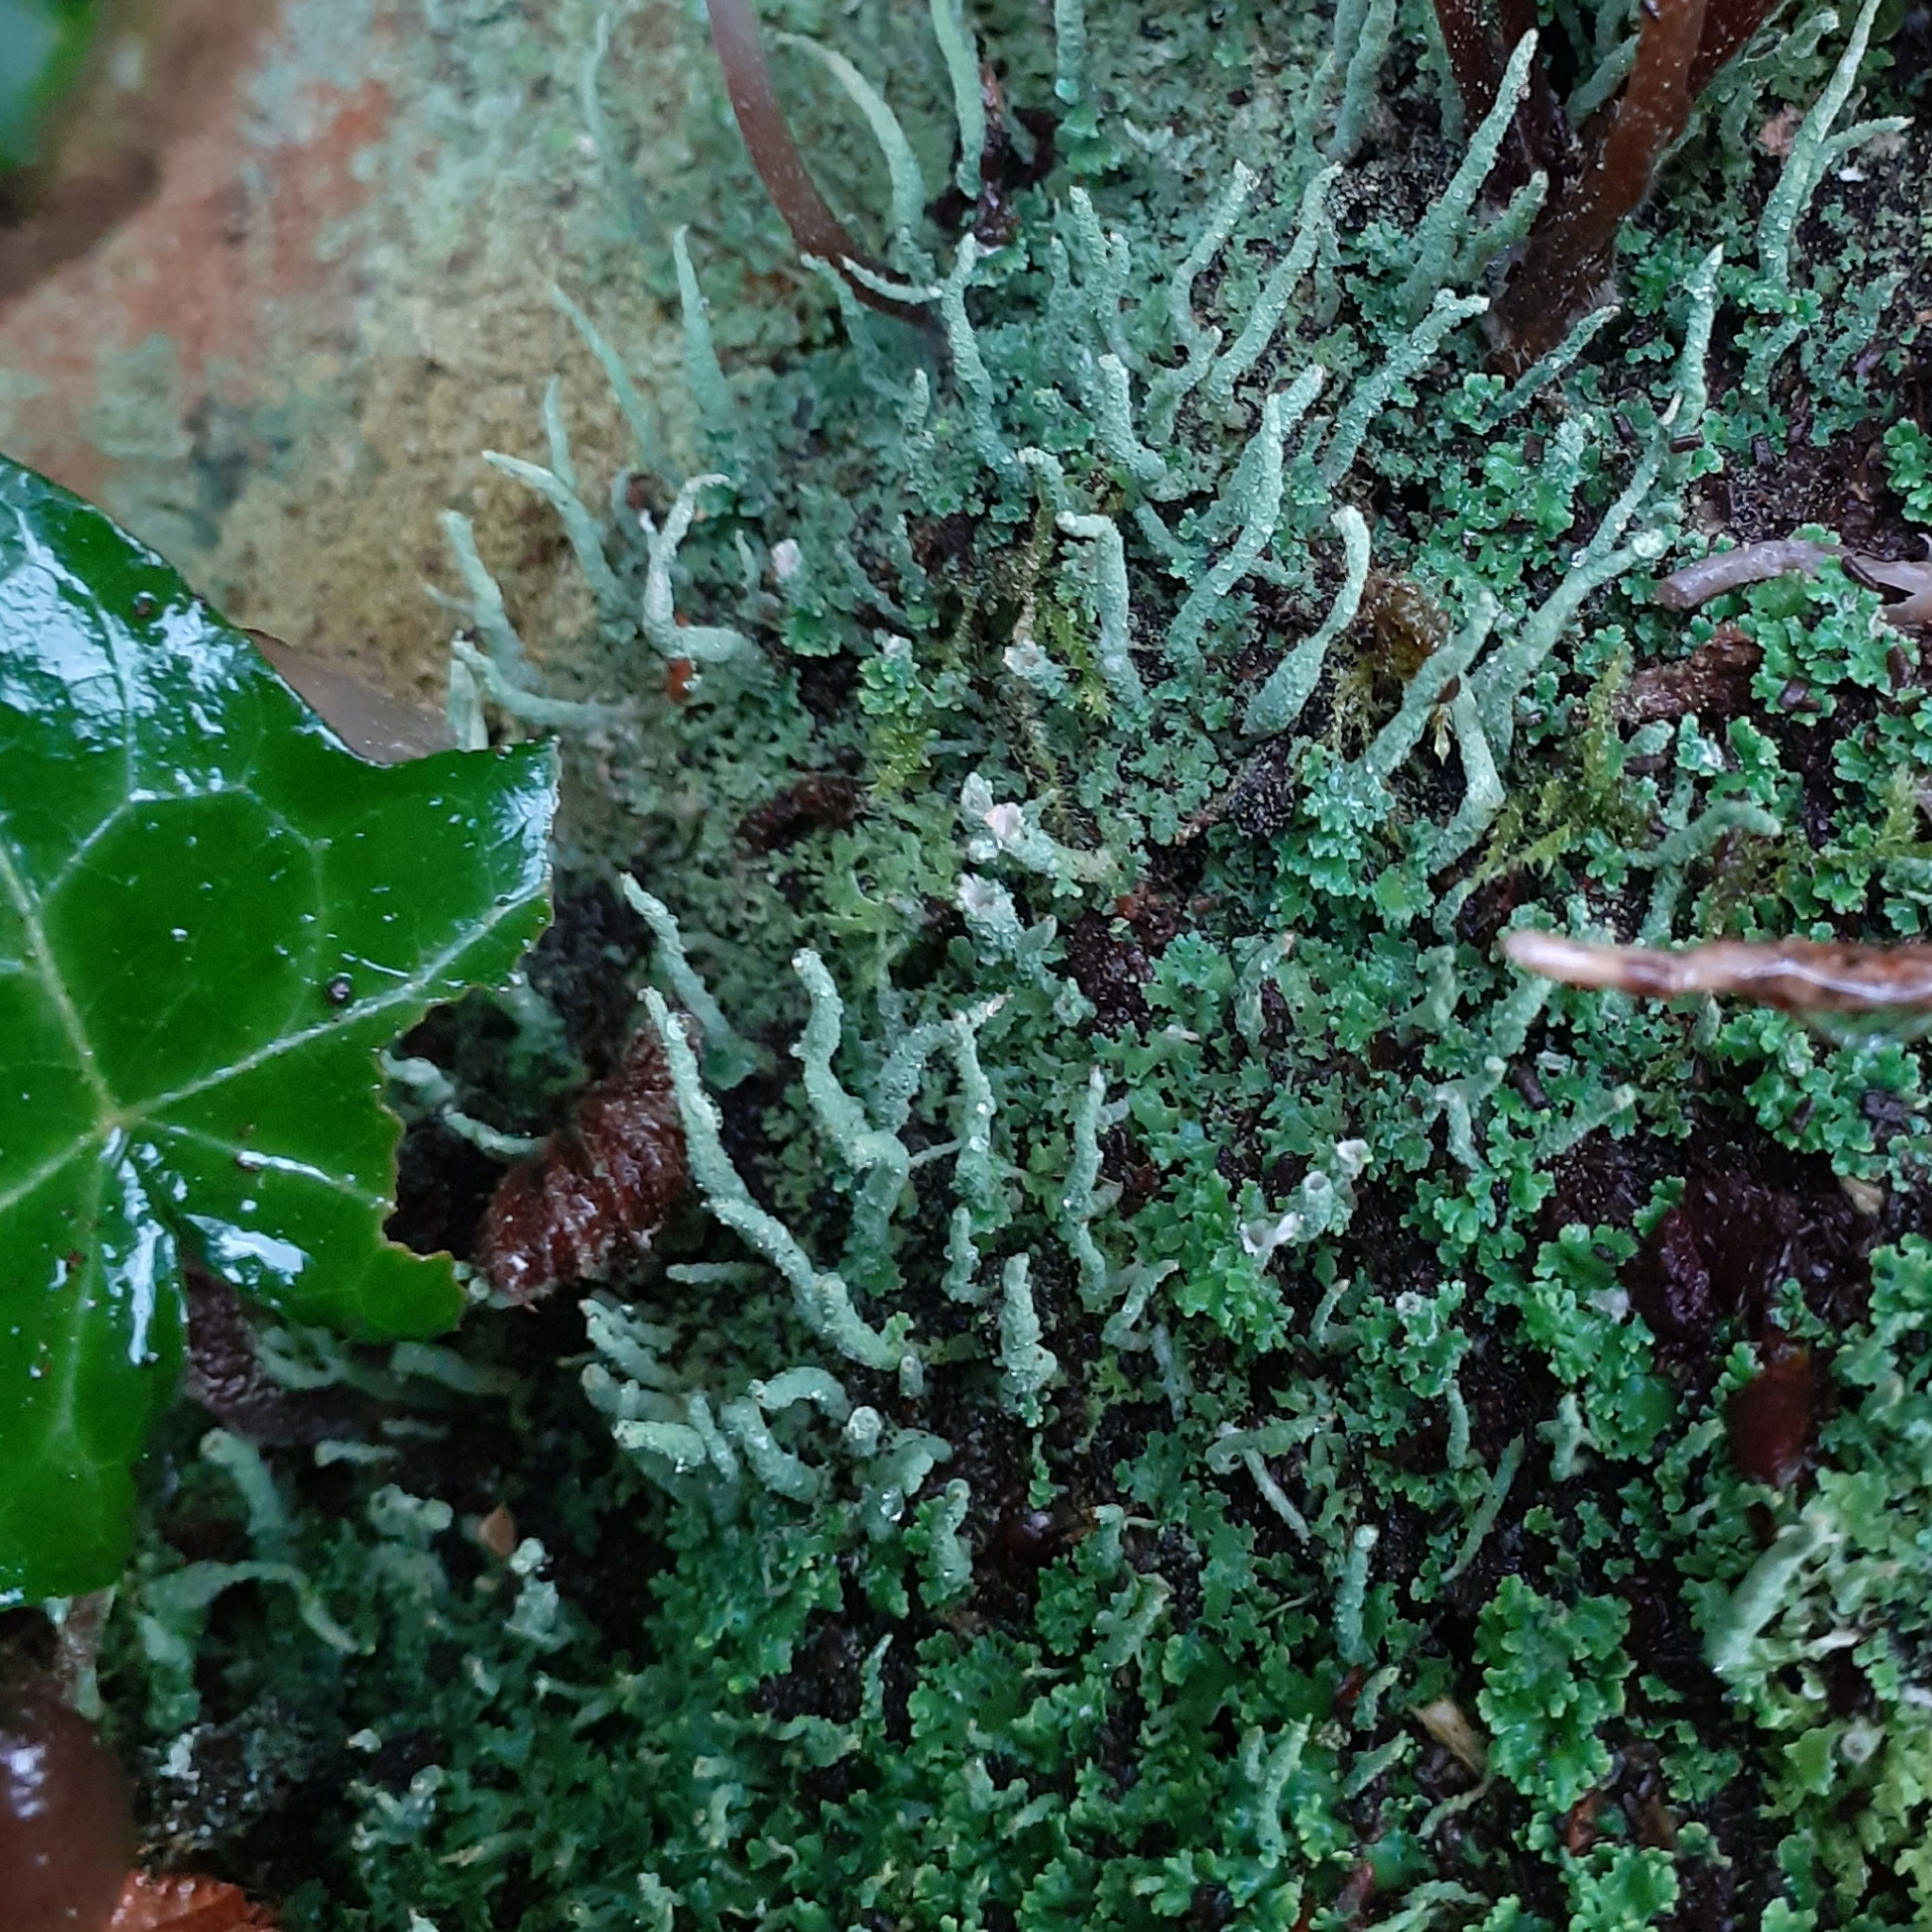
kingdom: Fungi
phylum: Ascomycota
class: Lecanoromycetes
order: Lecanorales
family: Cladoniaceae
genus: Cladonia
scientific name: Cladonia coniocraea
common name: Common powderhorn
